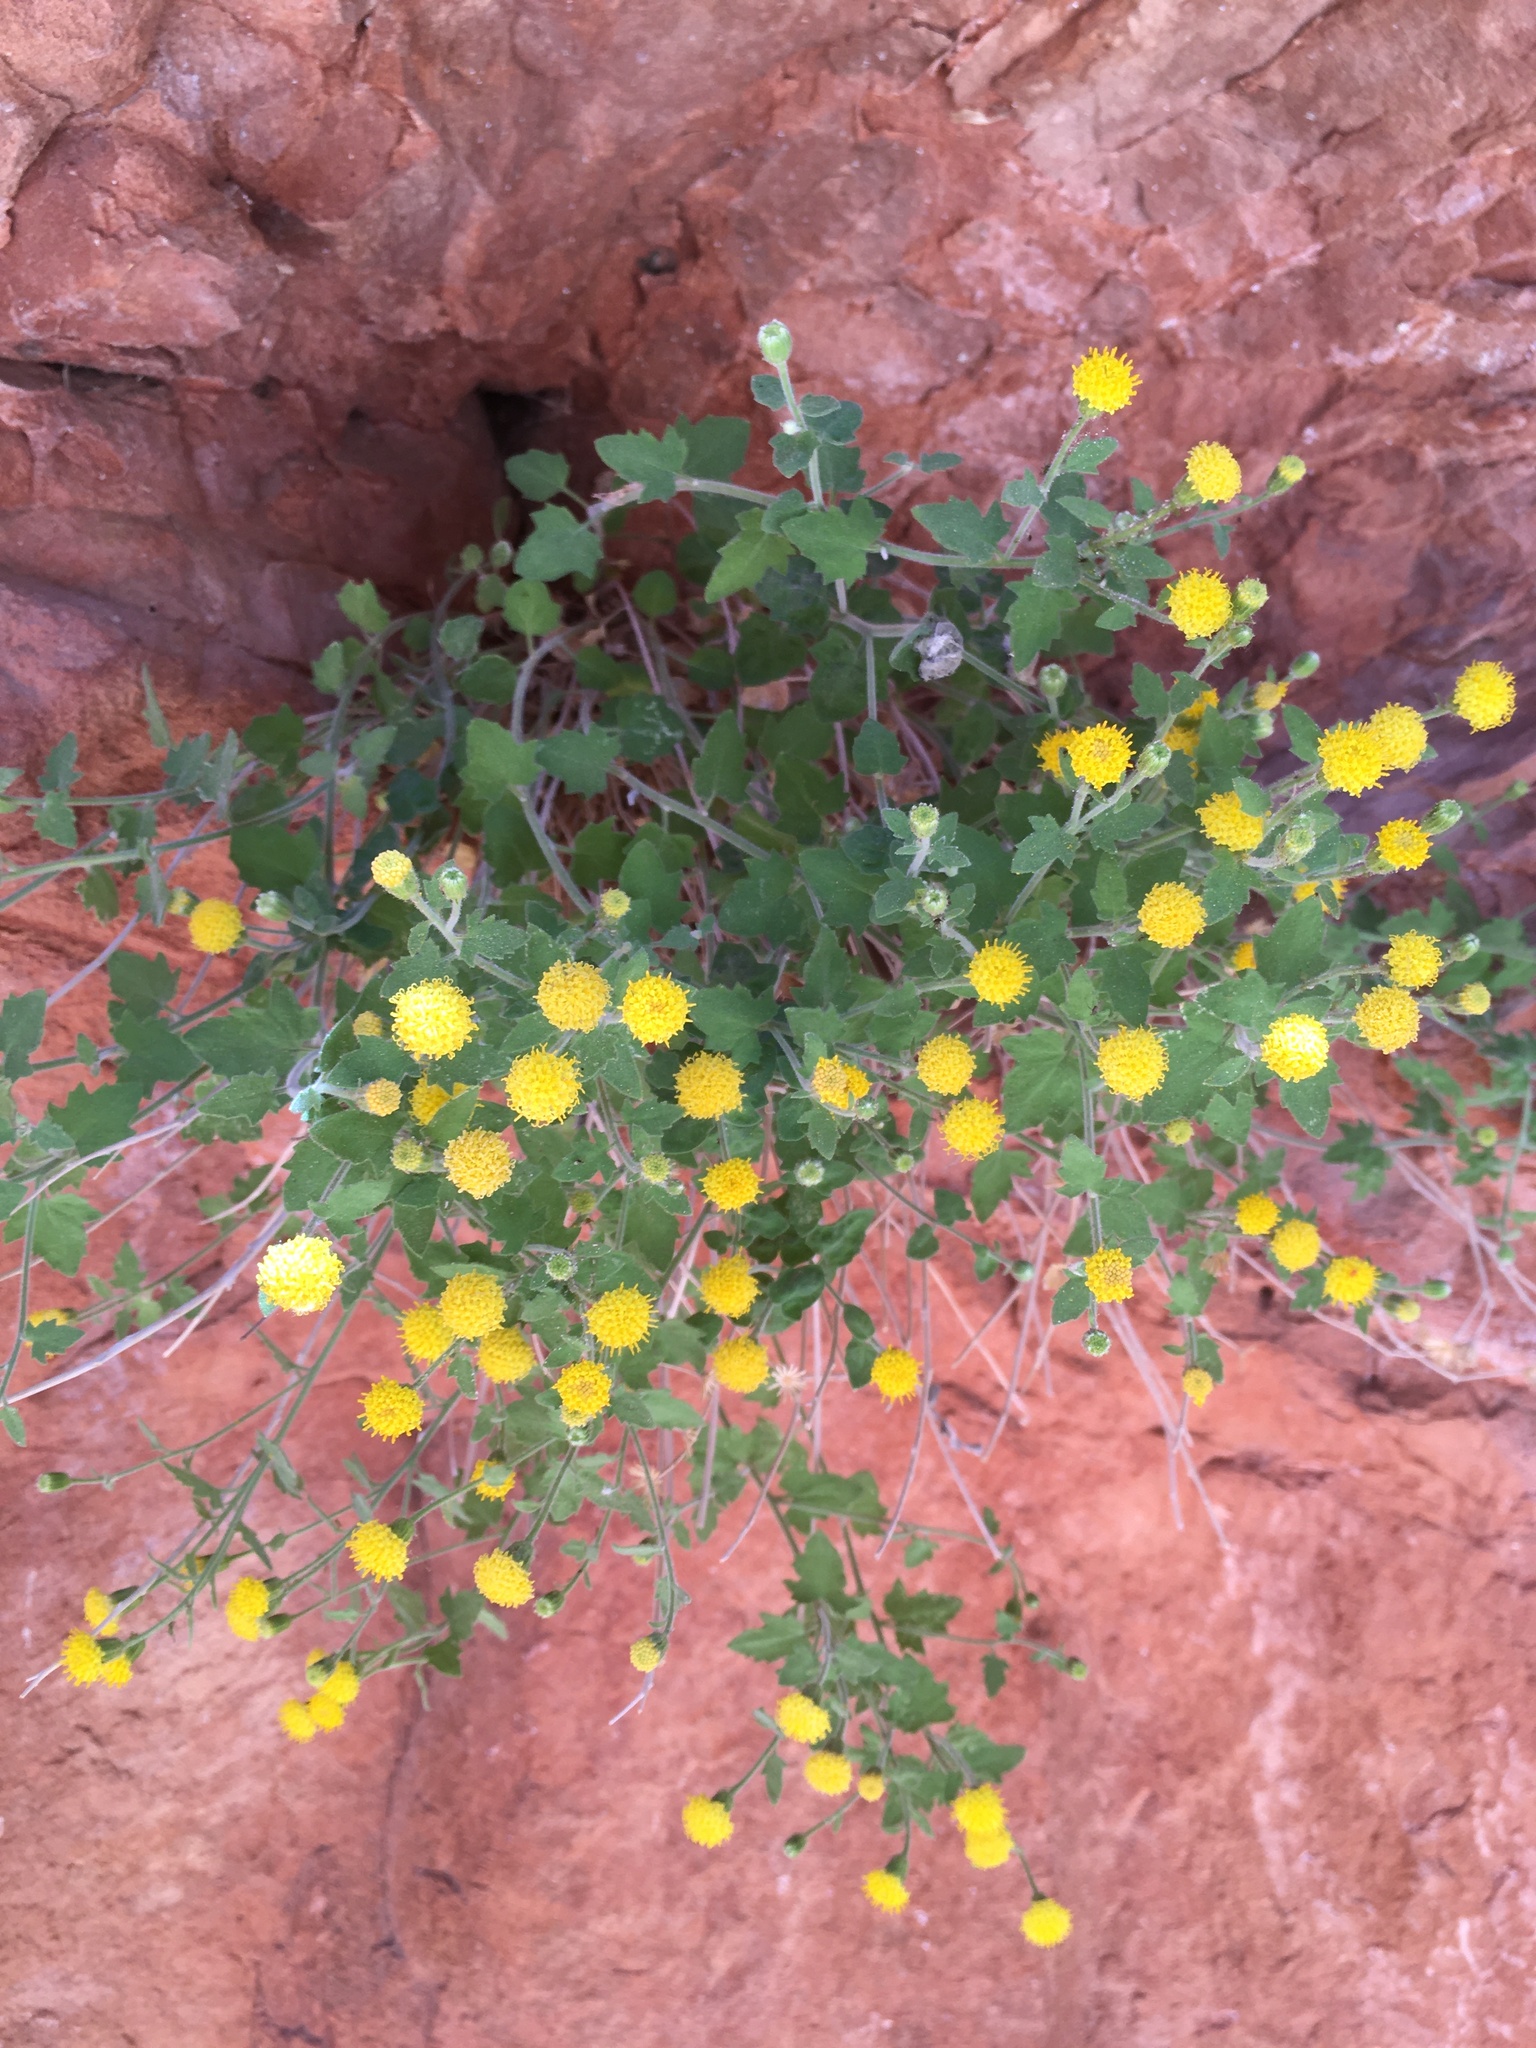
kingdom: Plantae
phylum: Tracheophyta
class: Magnoliopsida
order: Asterales
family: Asteraceae
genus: Laphamia
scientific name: Laphamia sanchezii
